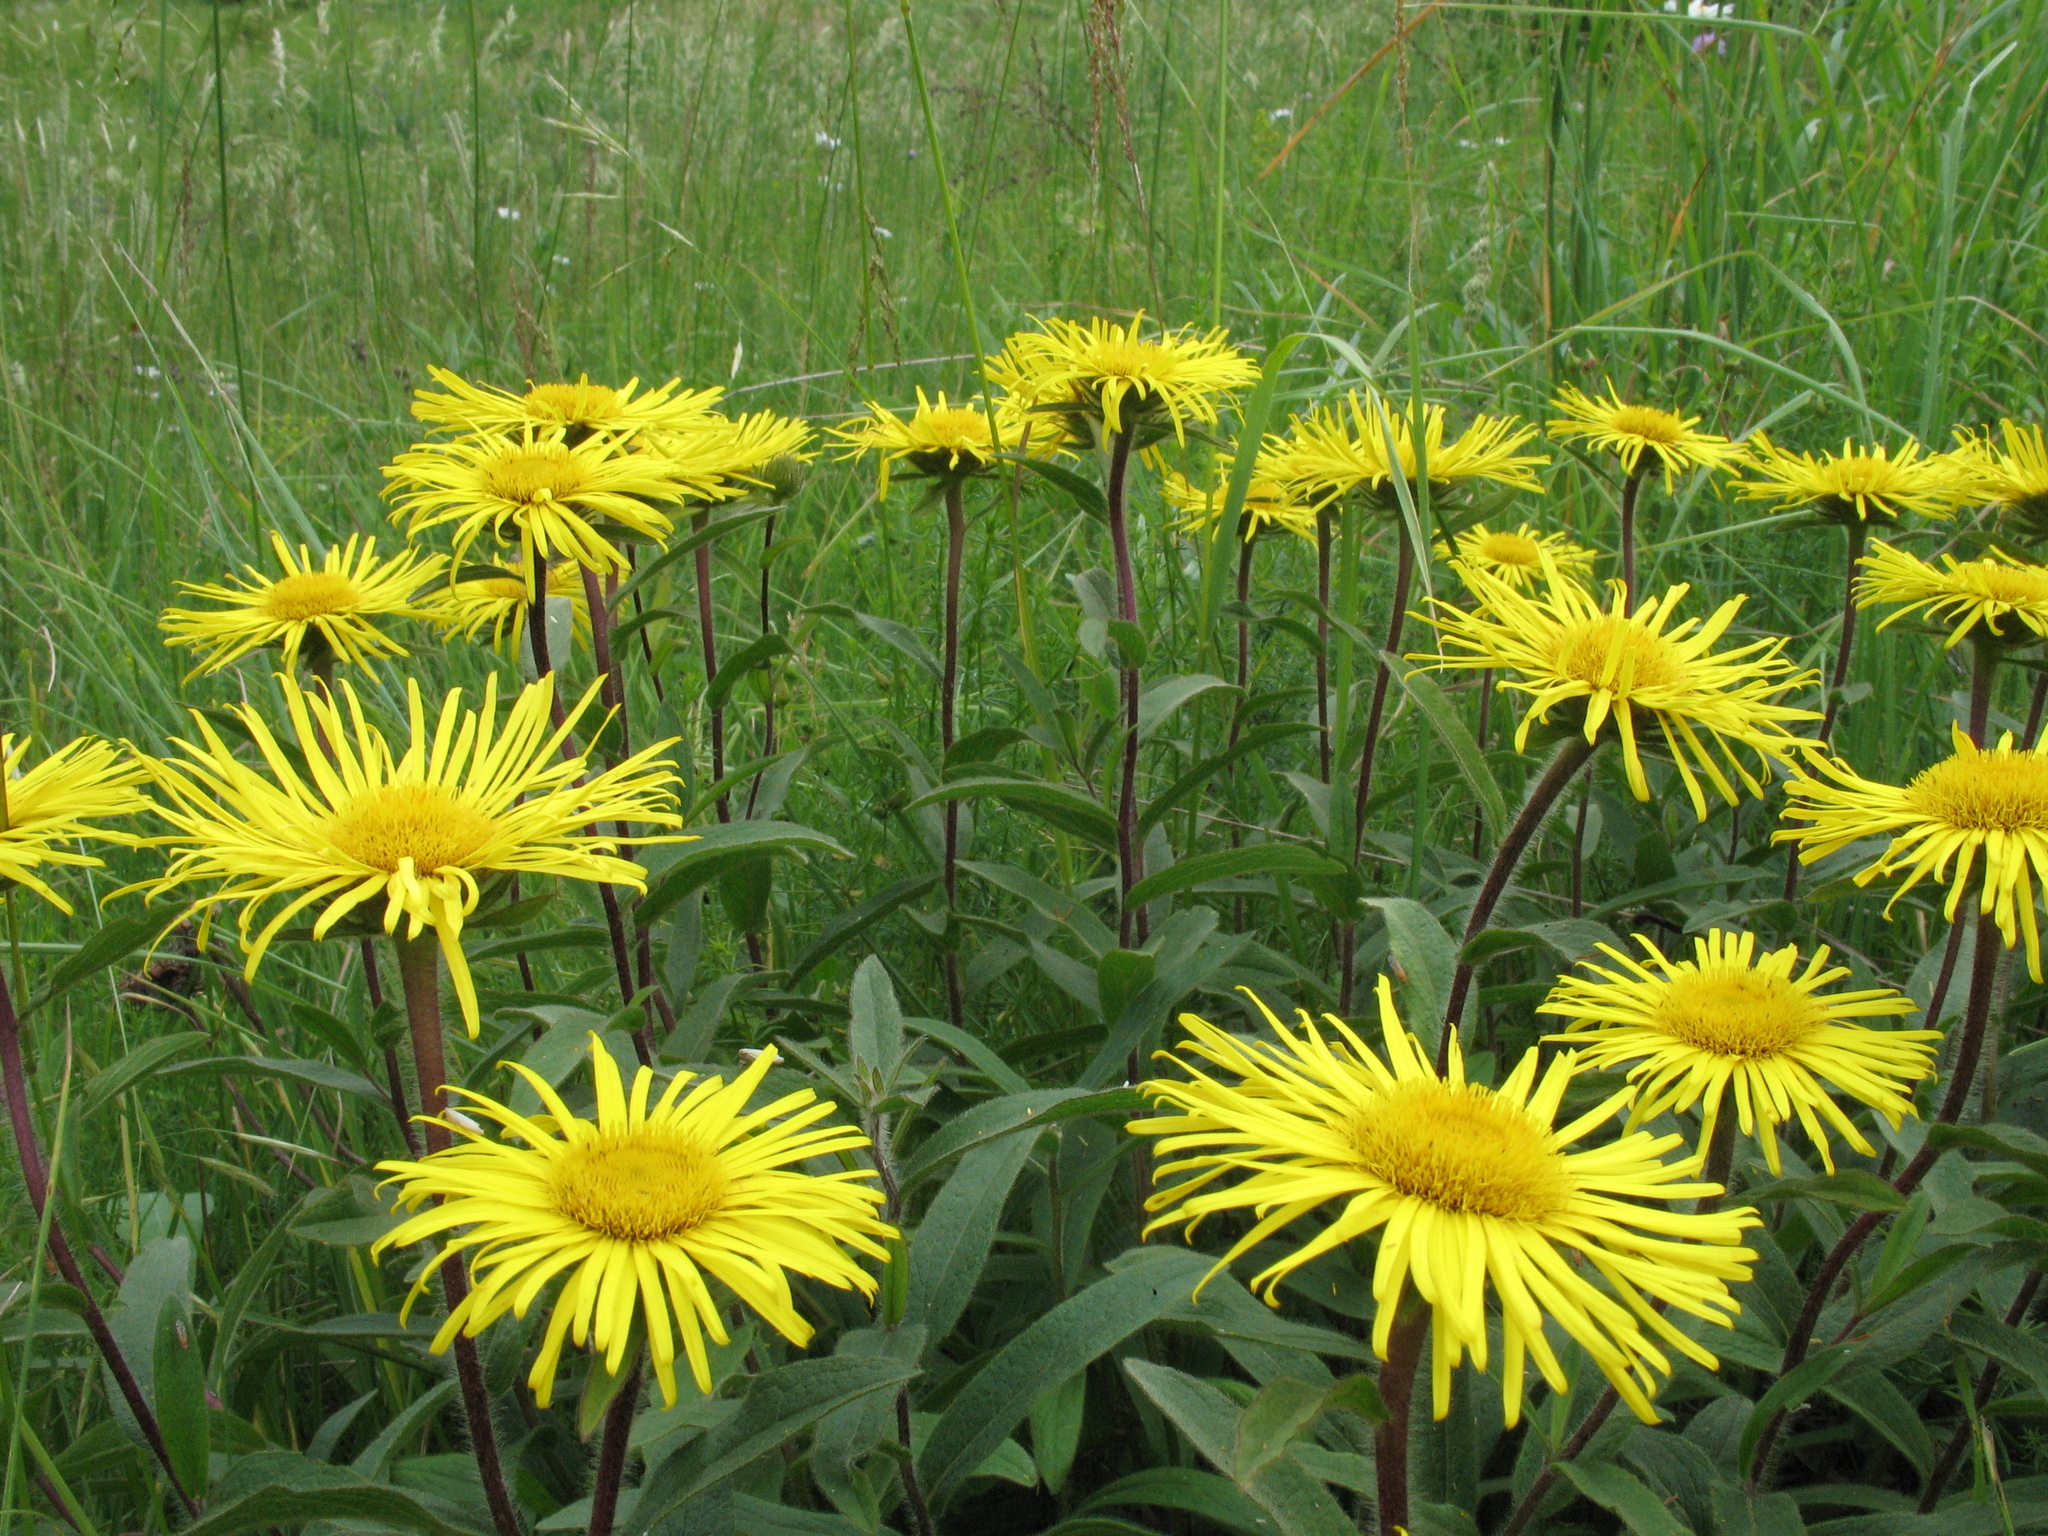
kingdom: Plantae
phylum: Tracheophyta
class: Magnoliopsida
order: Asterales
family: Asteraceae
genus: Pentanema
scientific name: Pentanema hirtum
